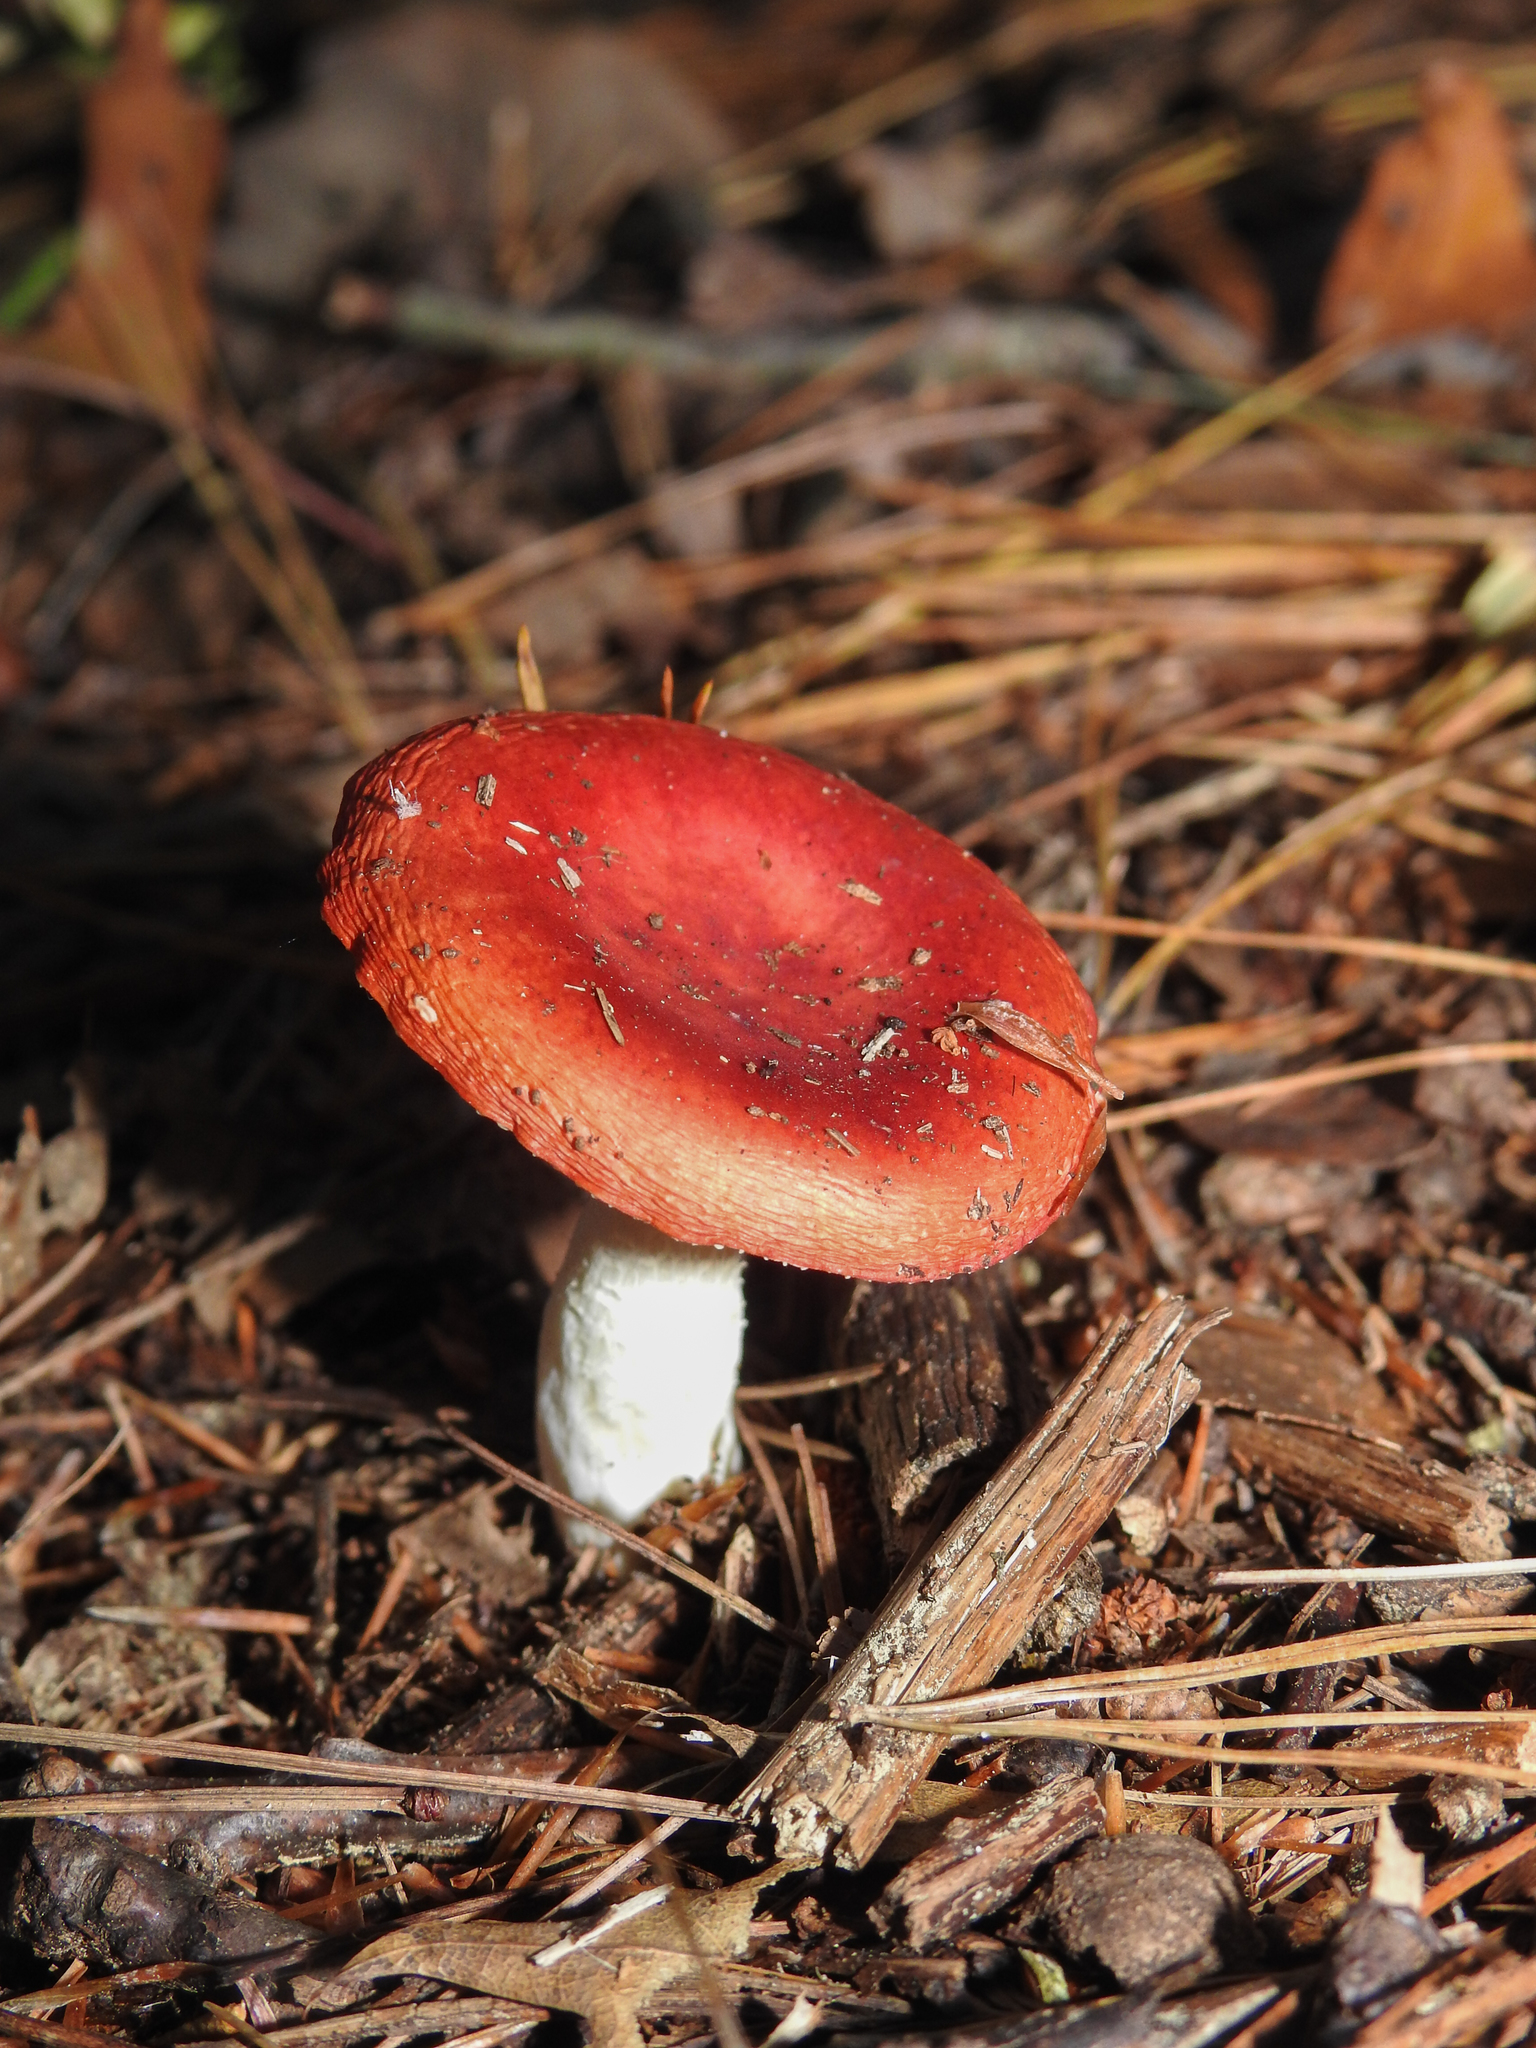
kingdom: Fungi
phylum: Basidiomycota
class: Agaricomycetes
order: Russulales
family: Russulaceae
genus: Russula
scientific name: Russula
